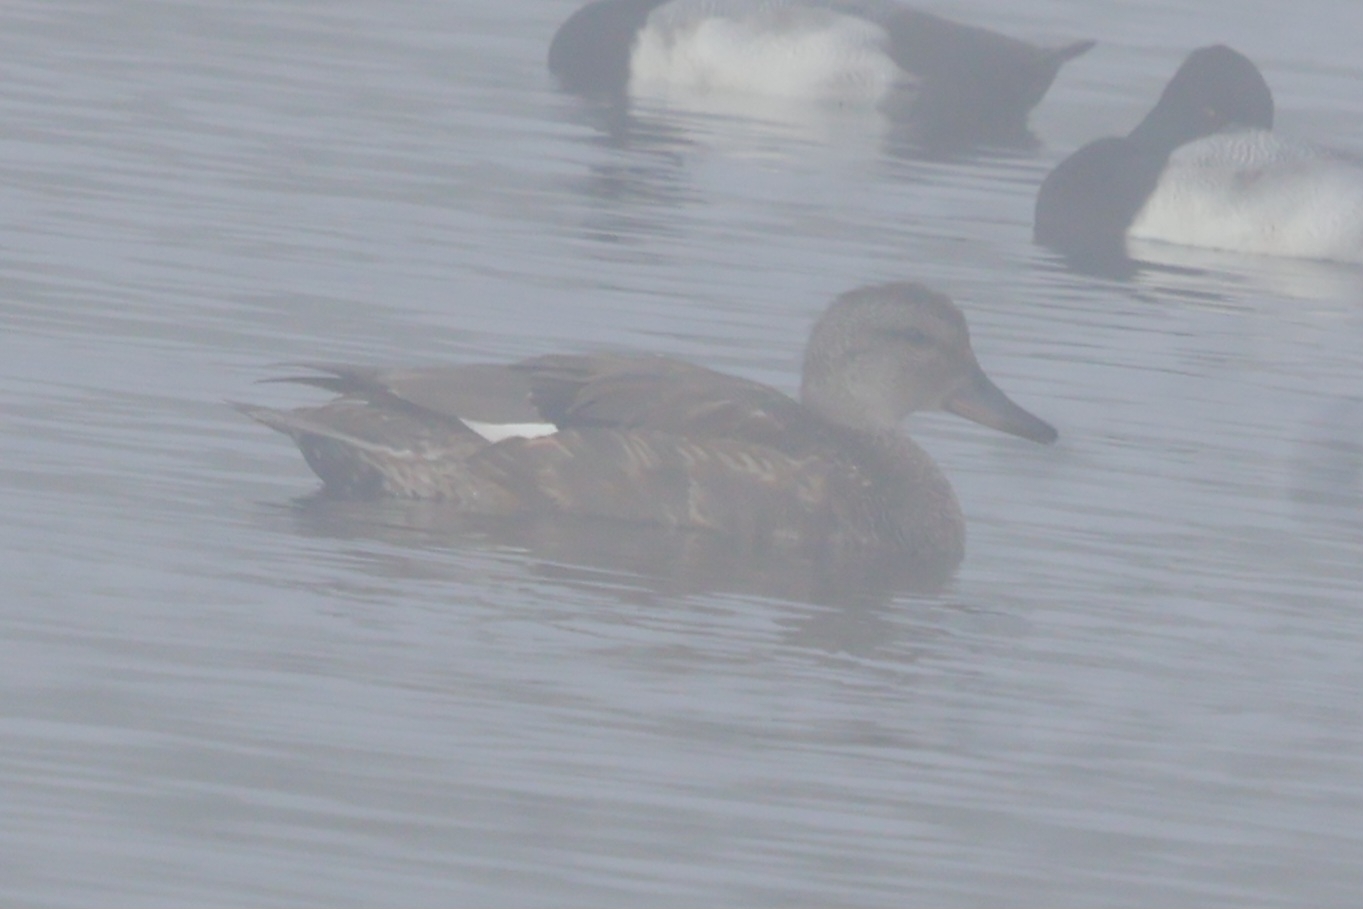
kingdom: Animalia
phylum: Chordata
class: Aves
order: Anseriformes
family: Anatidae
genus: Mareca
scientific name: Mareca strepera
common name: Gadwall
